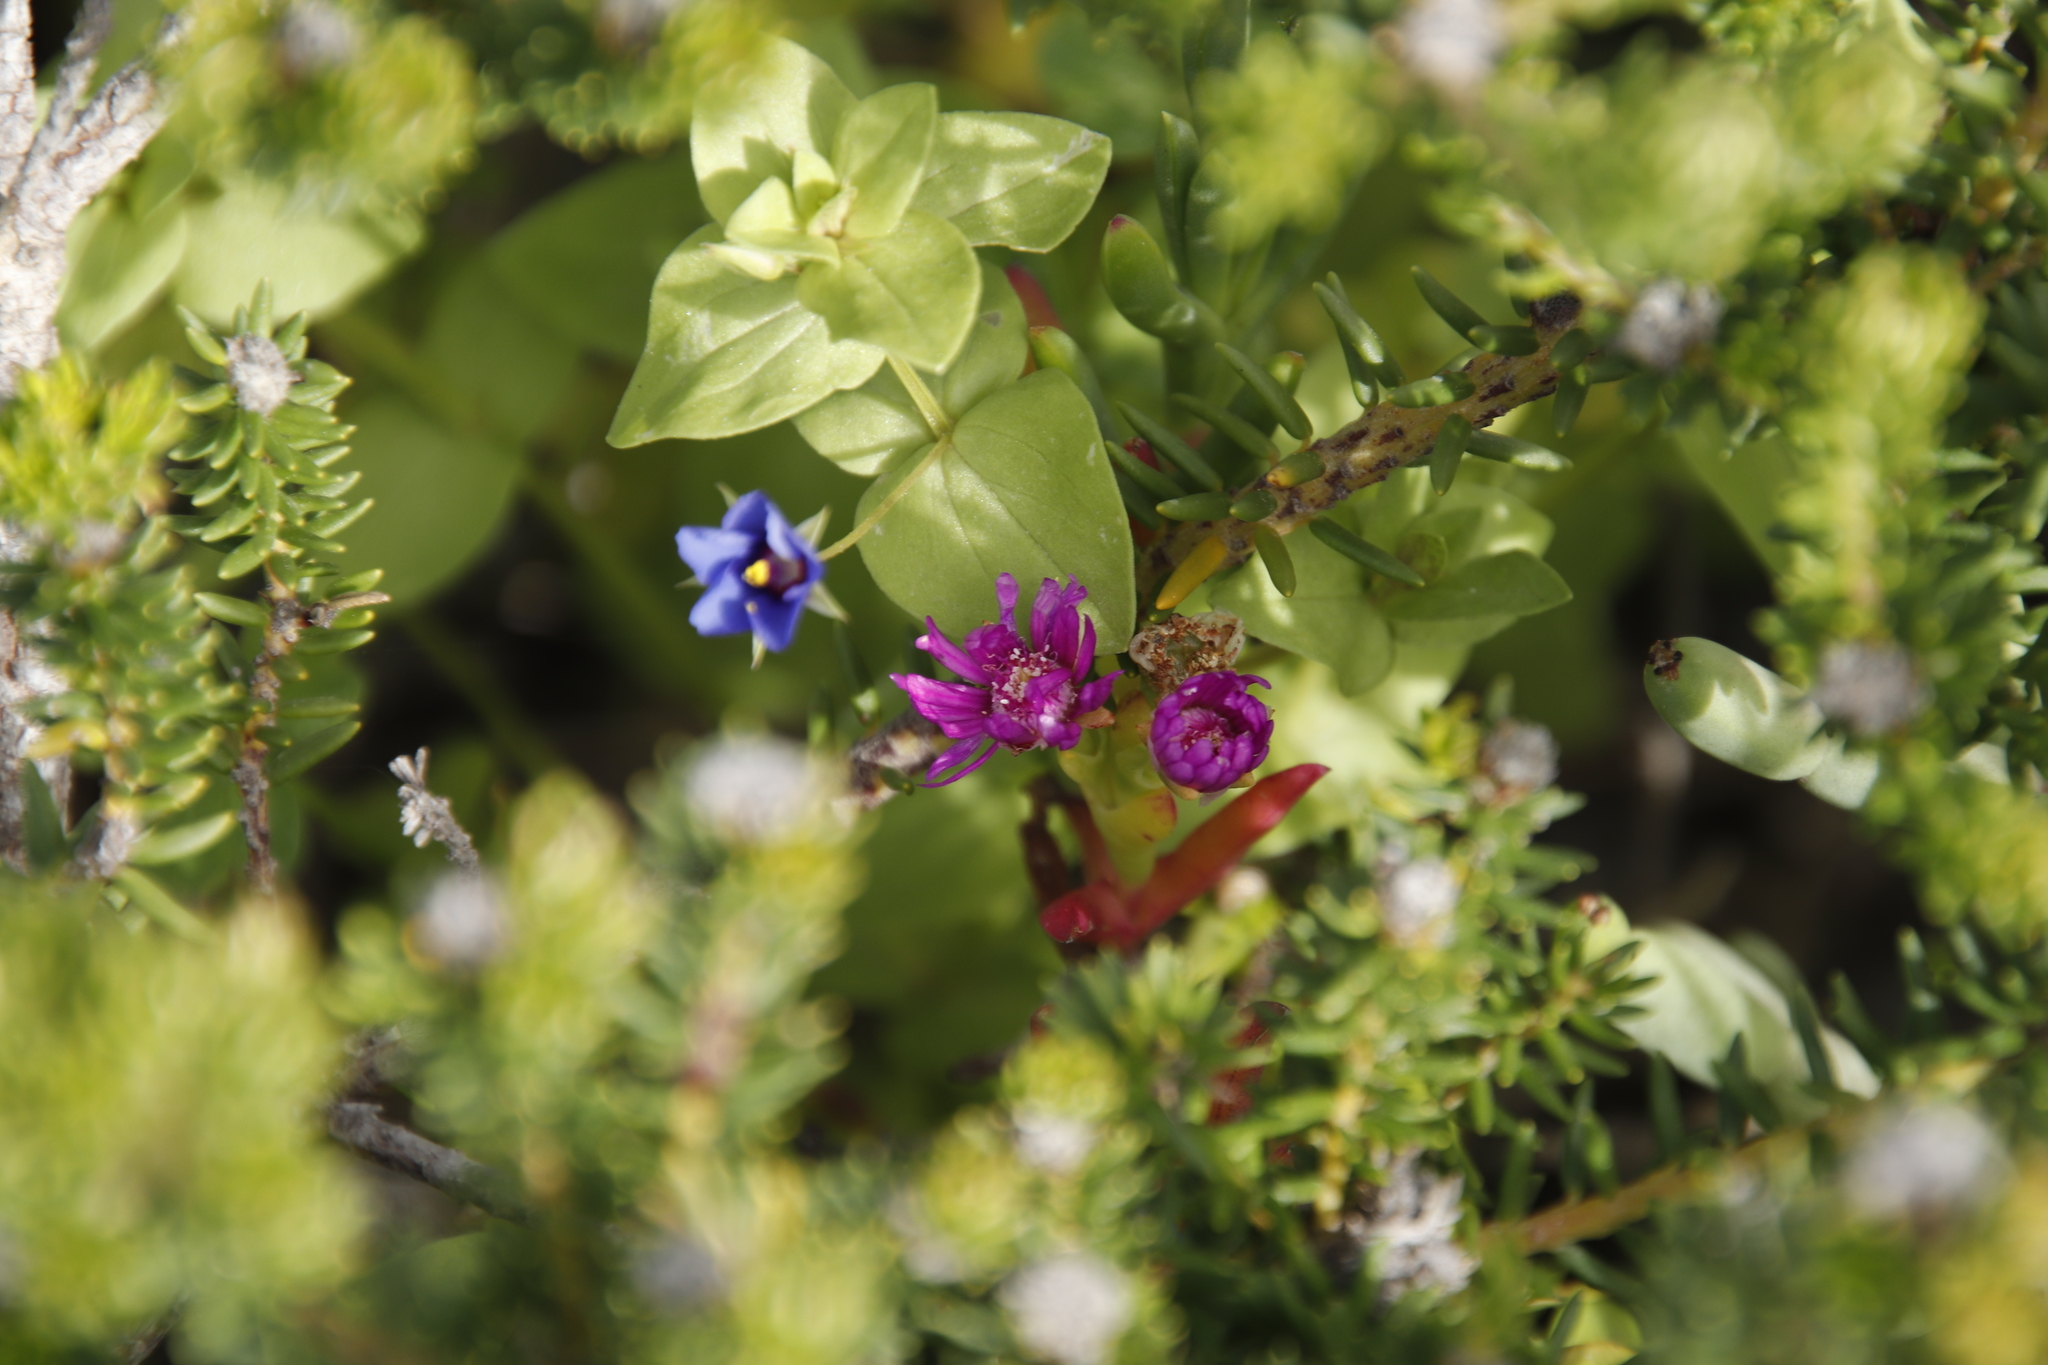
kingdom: Plantae
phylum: Tracheophyta
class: Magnoliopsida
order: Caryophyllales
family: Aizoaceae
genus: Ruschia
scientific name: Ruschia macowanii
